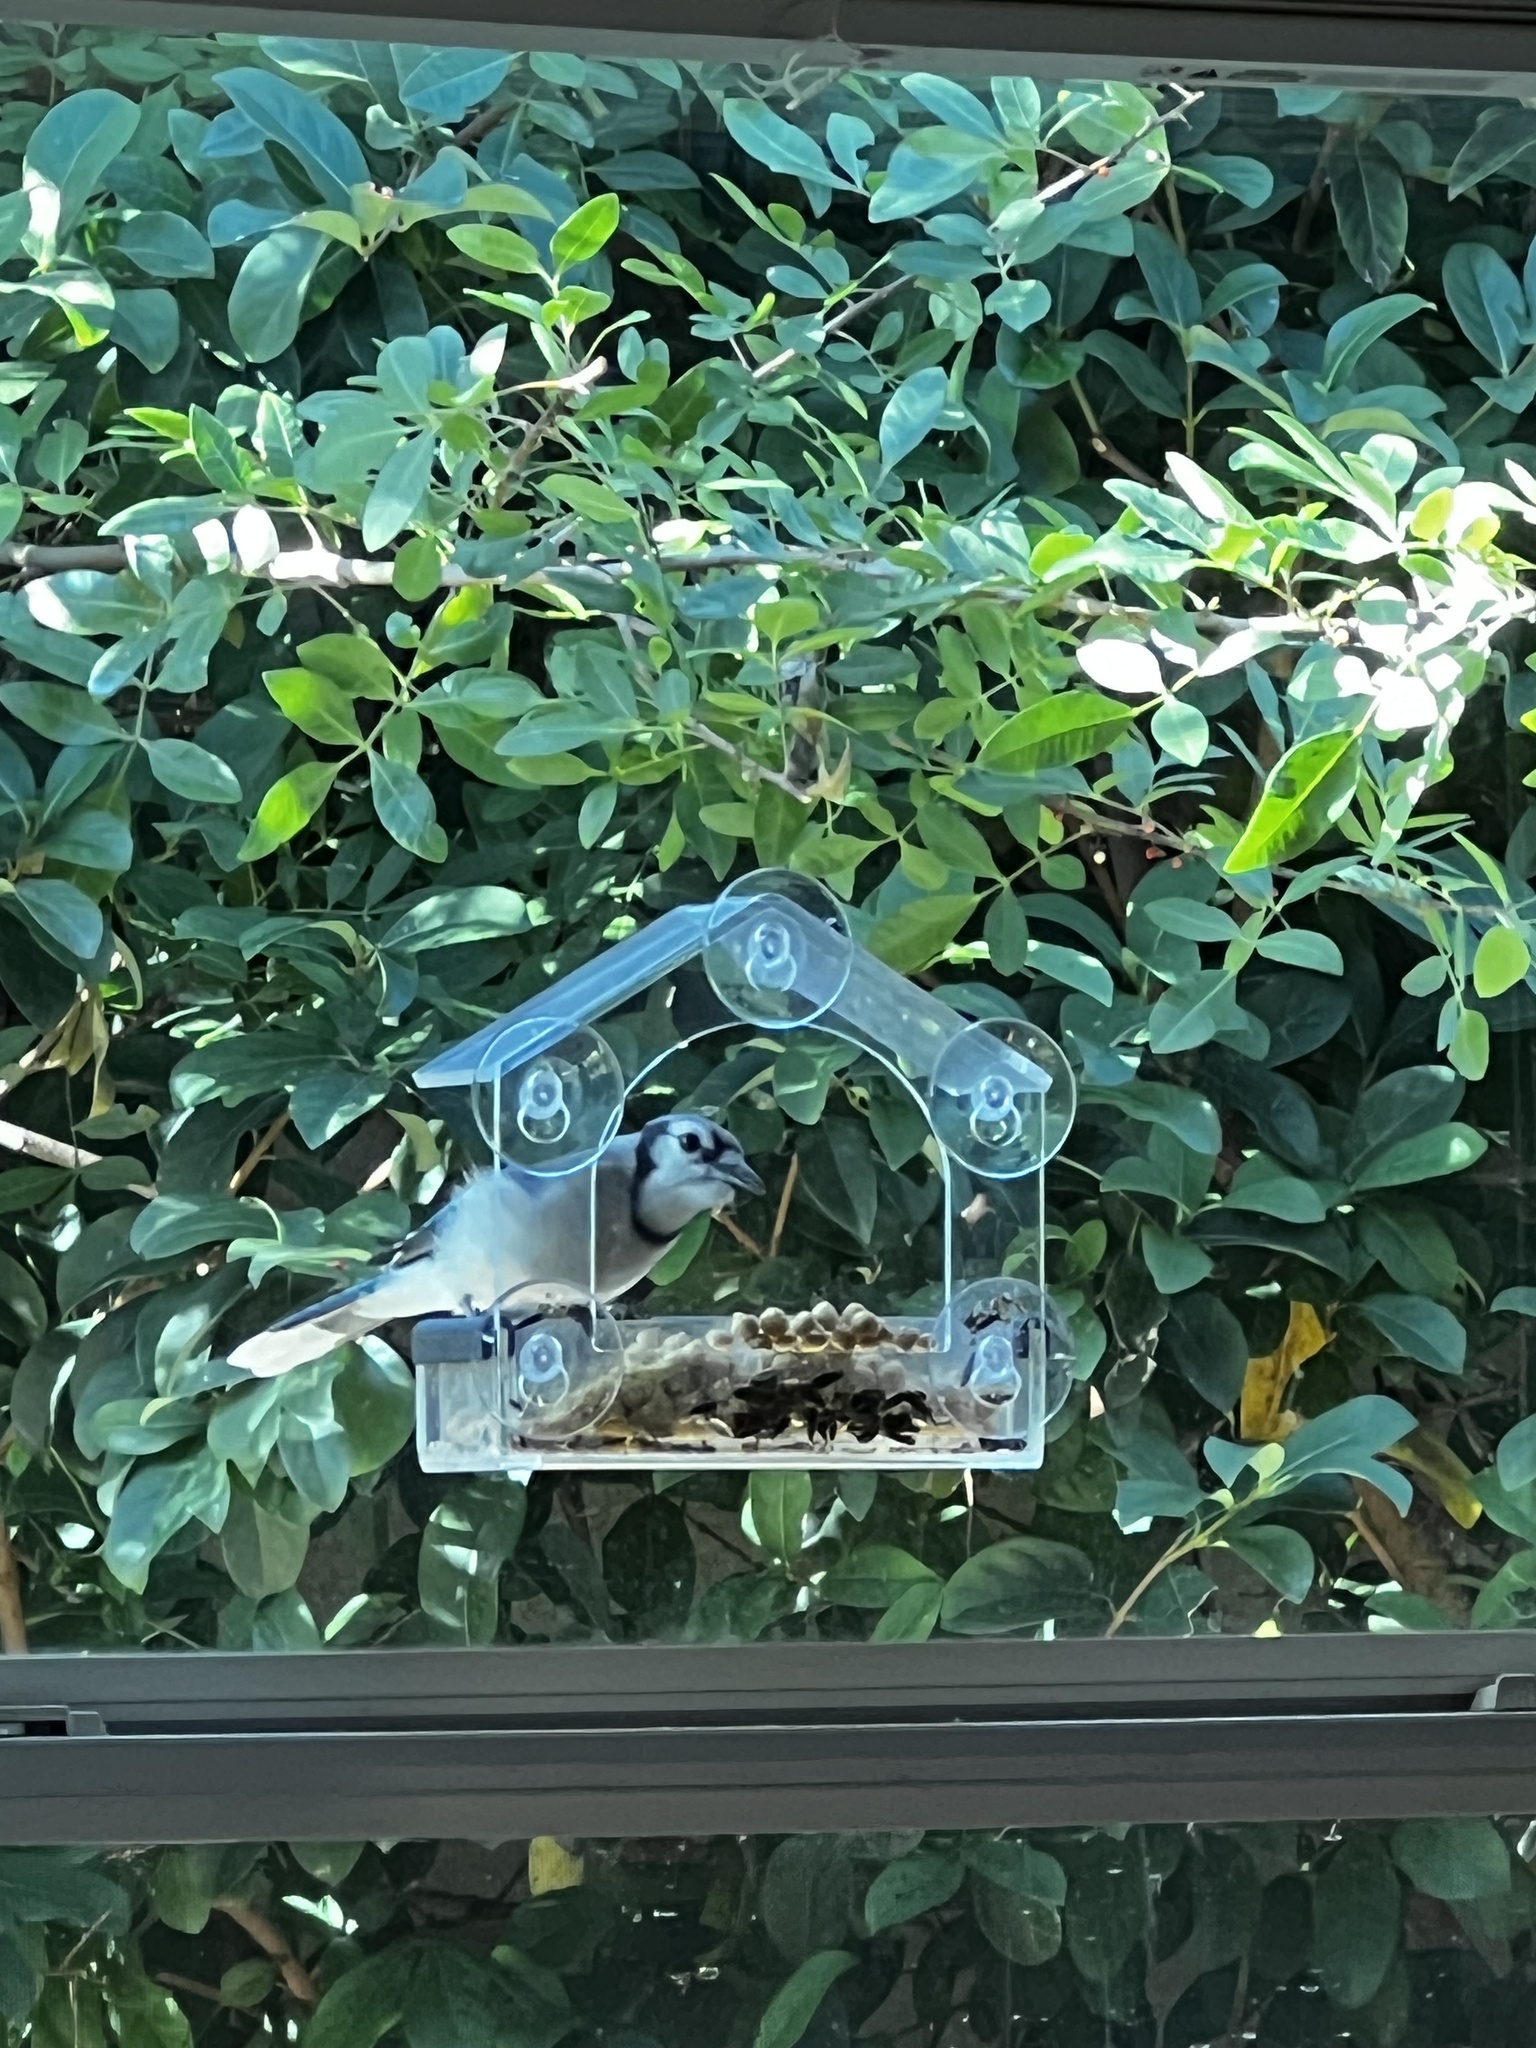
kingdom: Animalia
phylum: Chordata
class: Aves
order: Passeriformes
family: Corvidae
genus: Cyanocitta
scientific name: Cyanocitta cristata
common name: Blue jay
